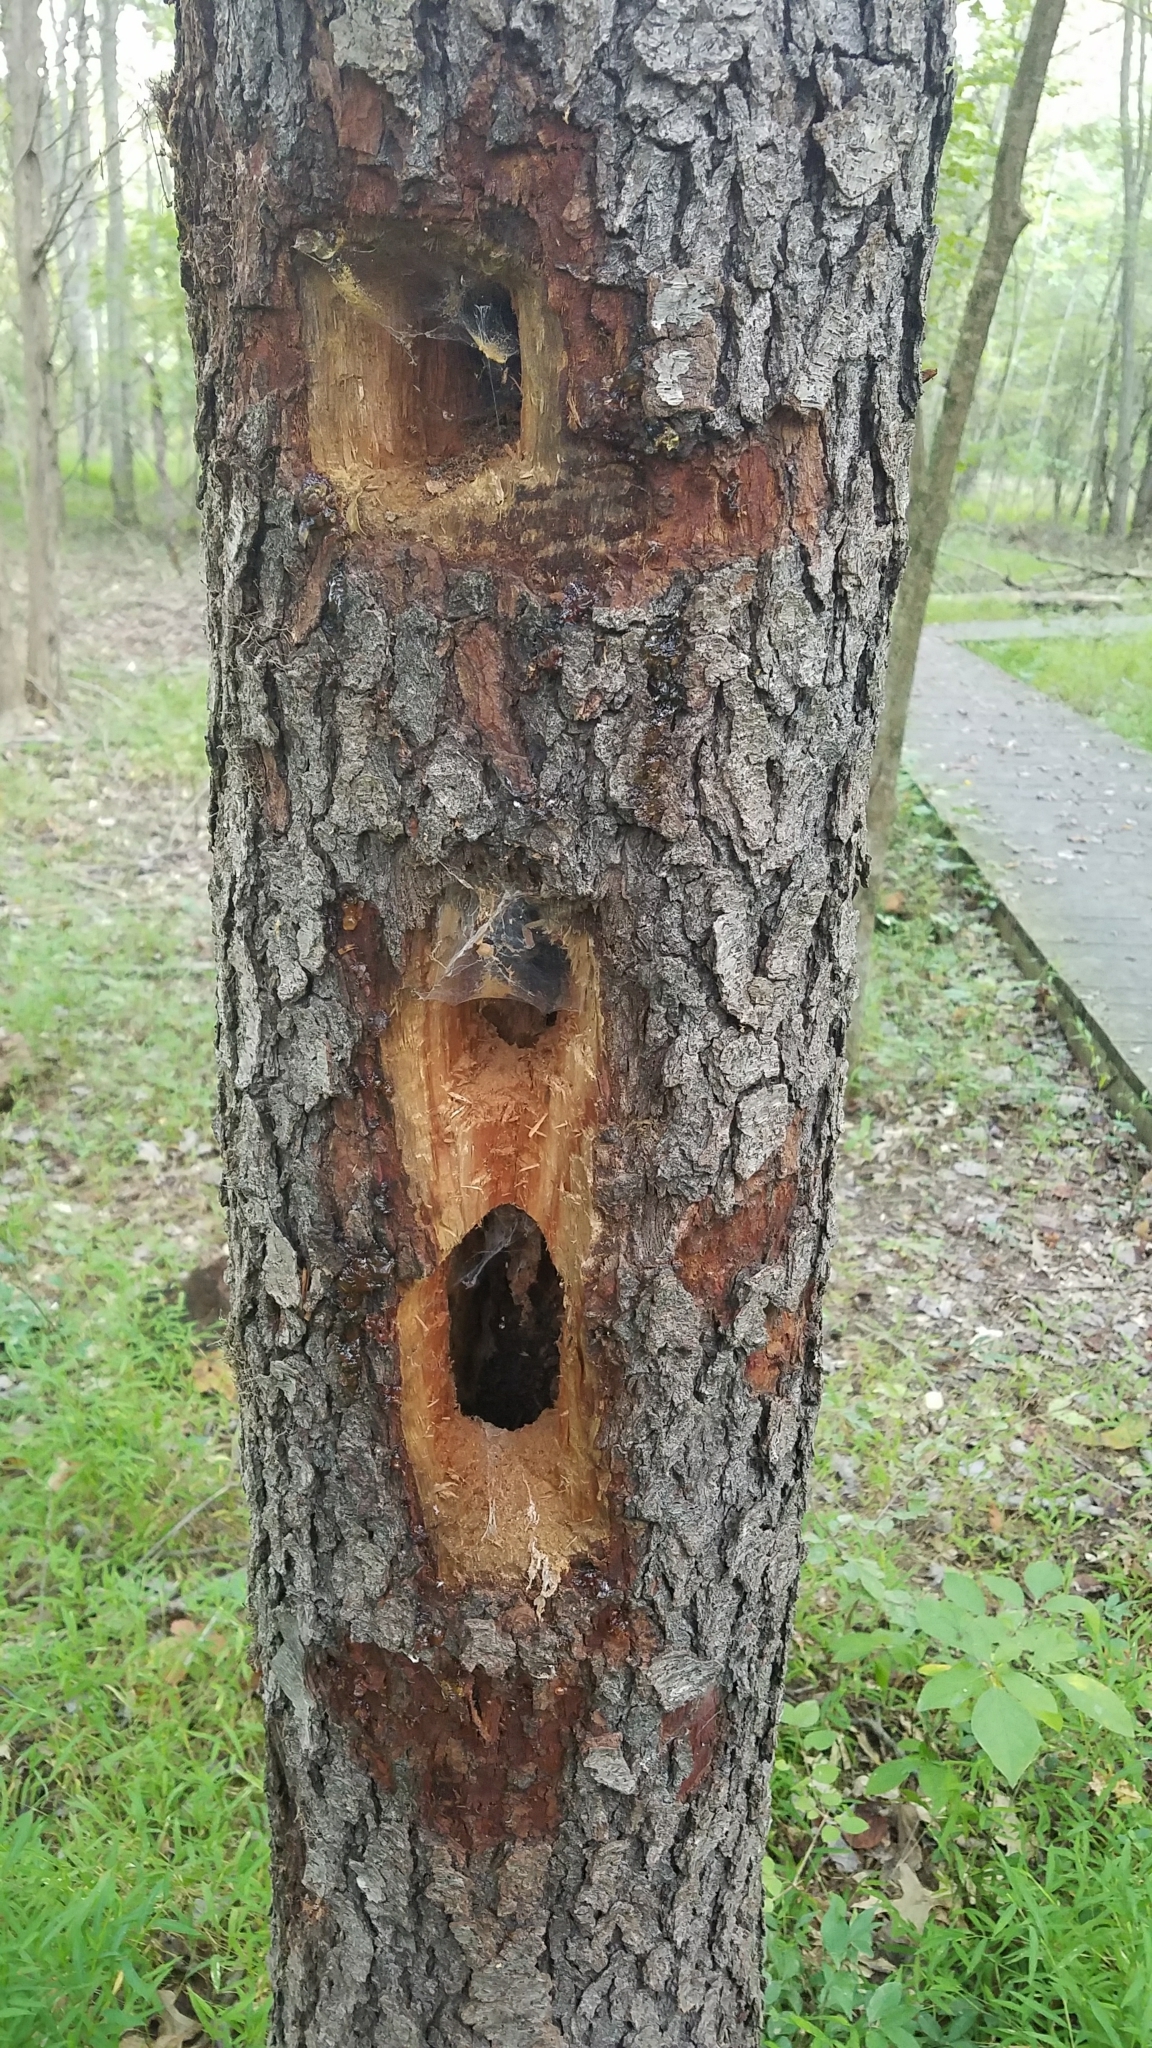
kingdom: Animalia
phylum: Chordata
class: Aves
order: Piciformes
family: Picidae
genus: Dryocopus
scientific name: Dryocopus pileatus
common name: Pileated woodpecker
